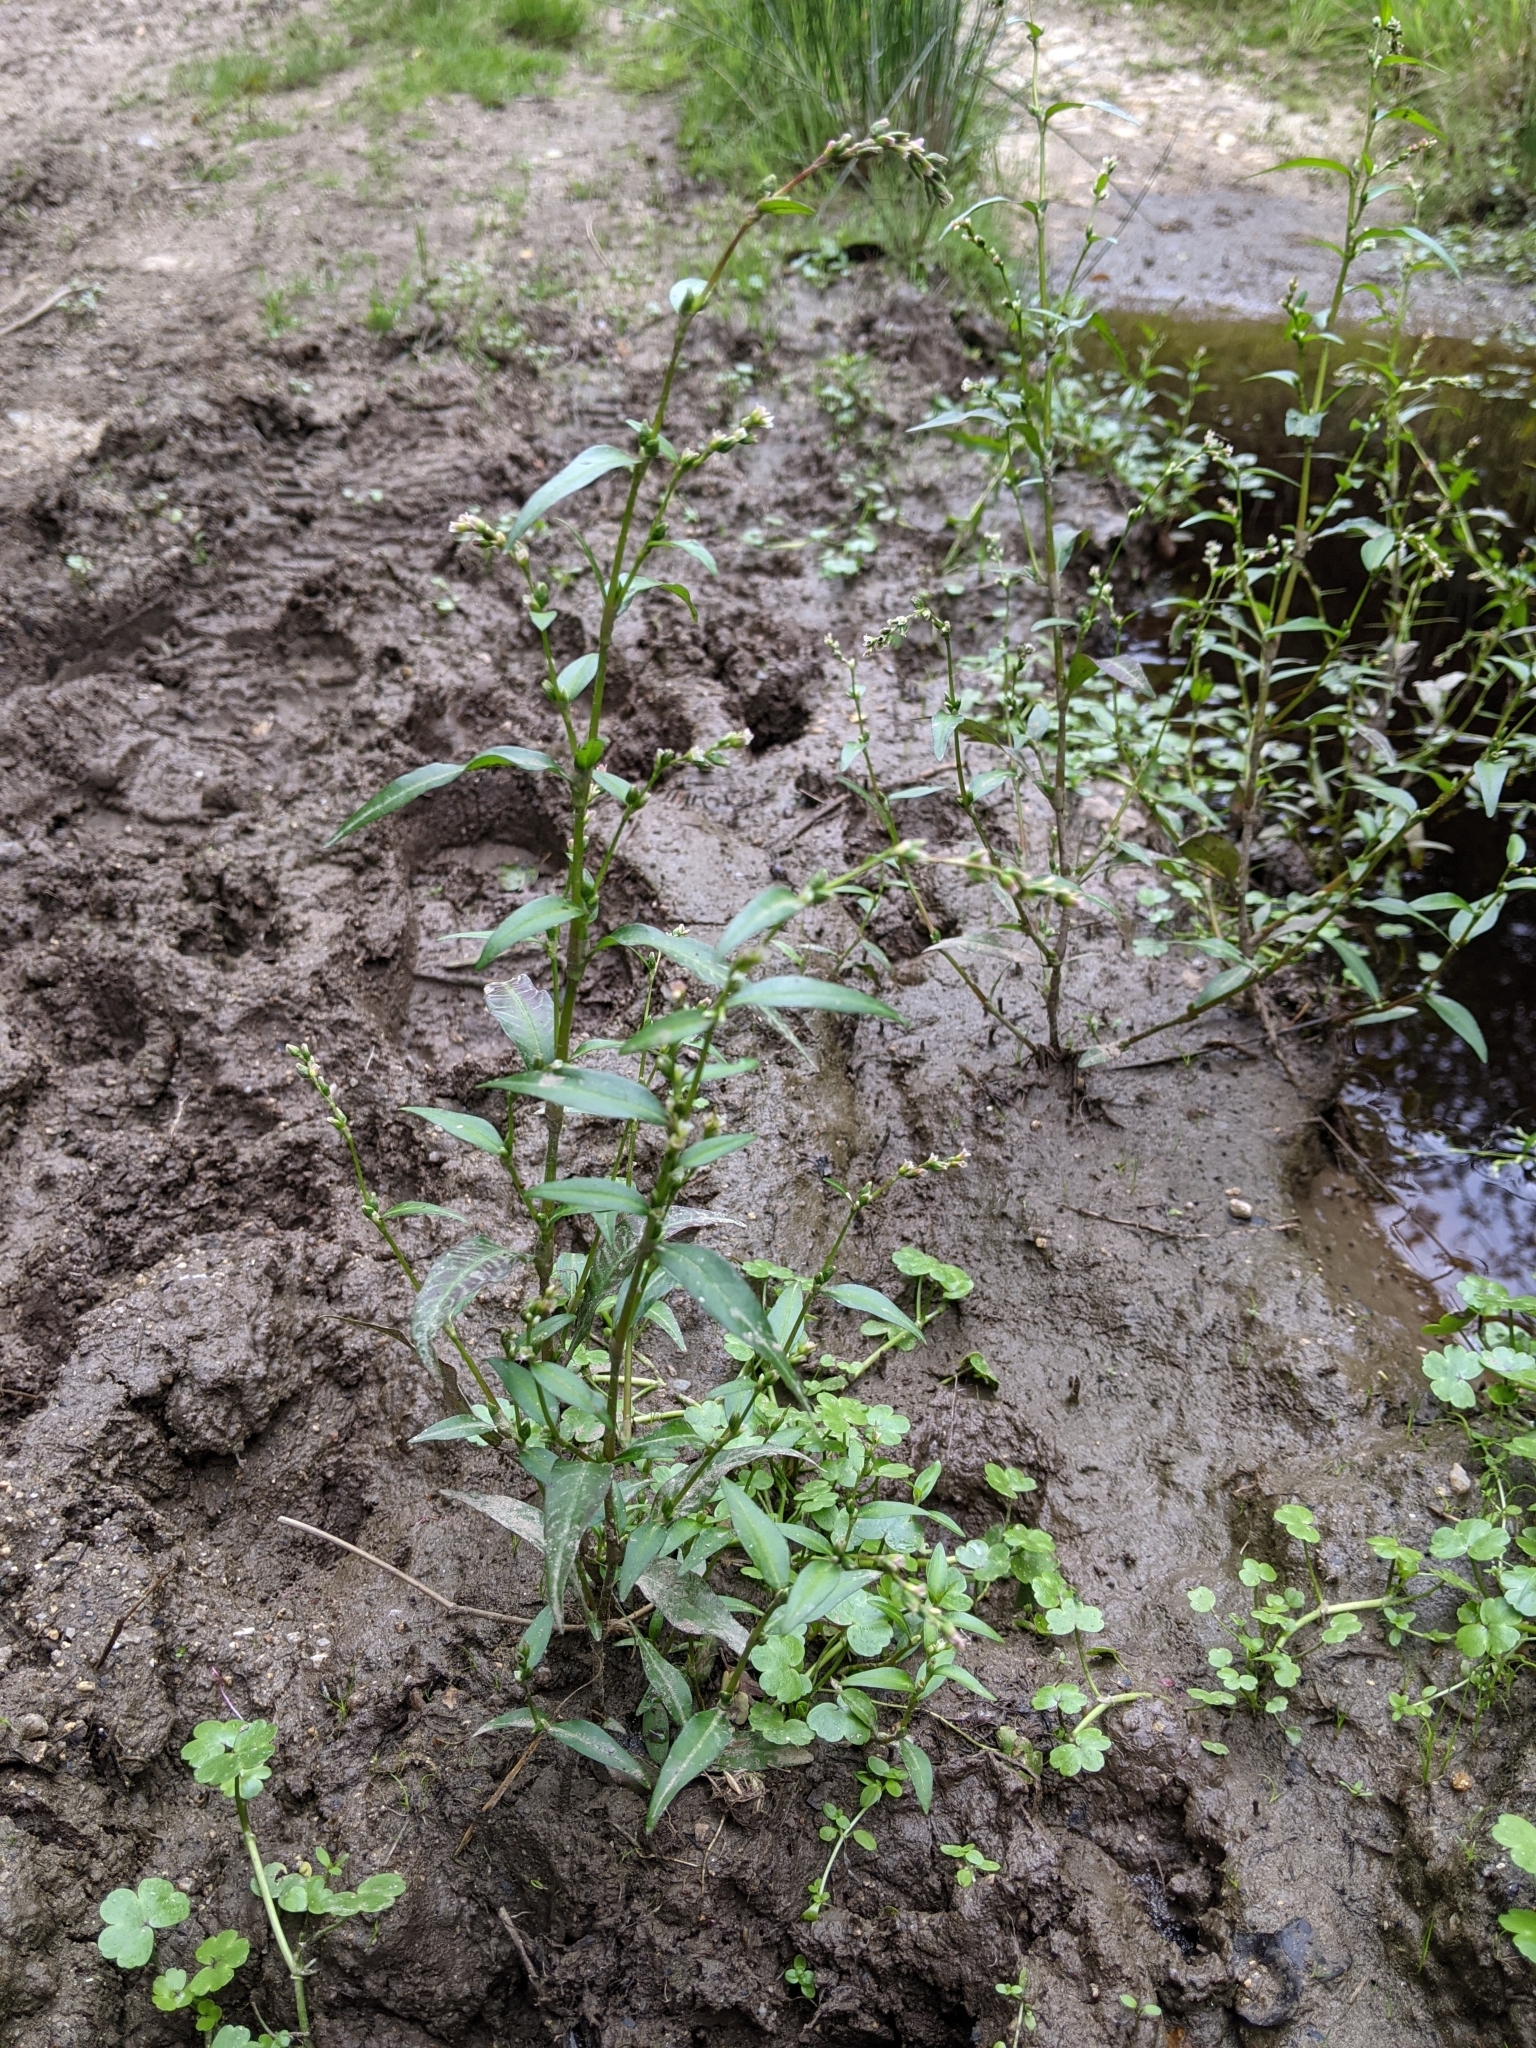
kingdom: Plantae
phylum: Tracheophyta
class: Magnoliopsida
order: Caryophyllales
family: Polygonaceae
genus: Persicaria
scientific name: Persicaria hydropiper
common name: Water-pepper
